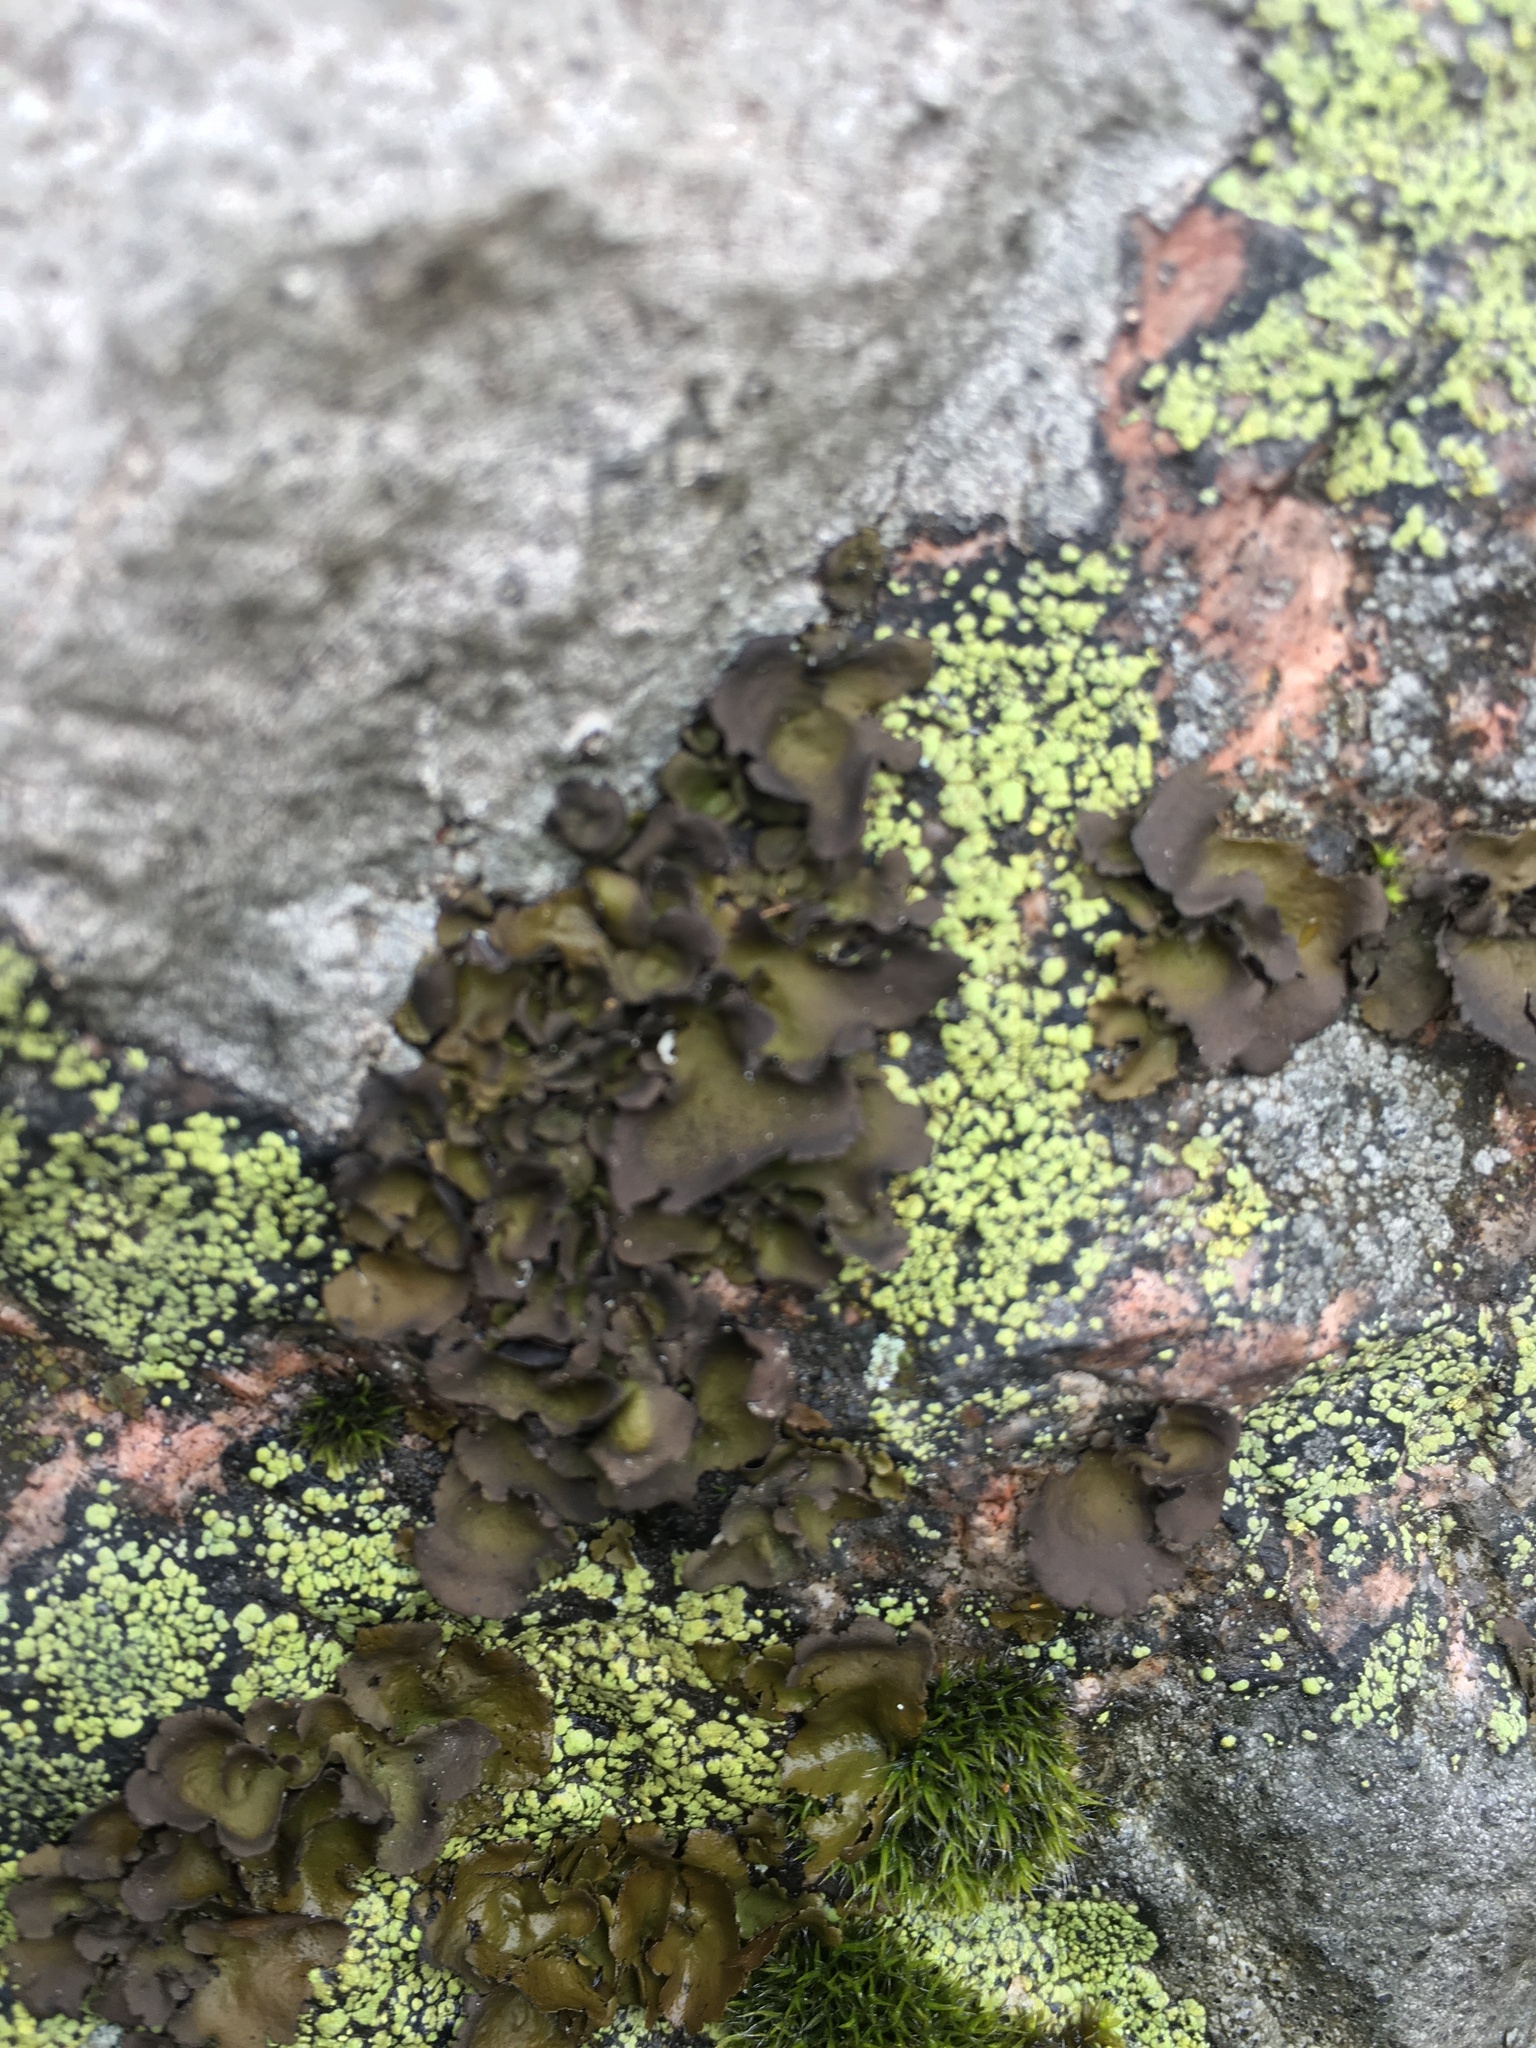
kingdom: Fungi
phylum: Ascomycota
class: Lecanoromycetes
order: Umbilicariales
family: Umbilicariaceae
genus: Umbilicaria
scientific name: Umbilicaria polyphylla
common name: Petalled rocktripe lichen
